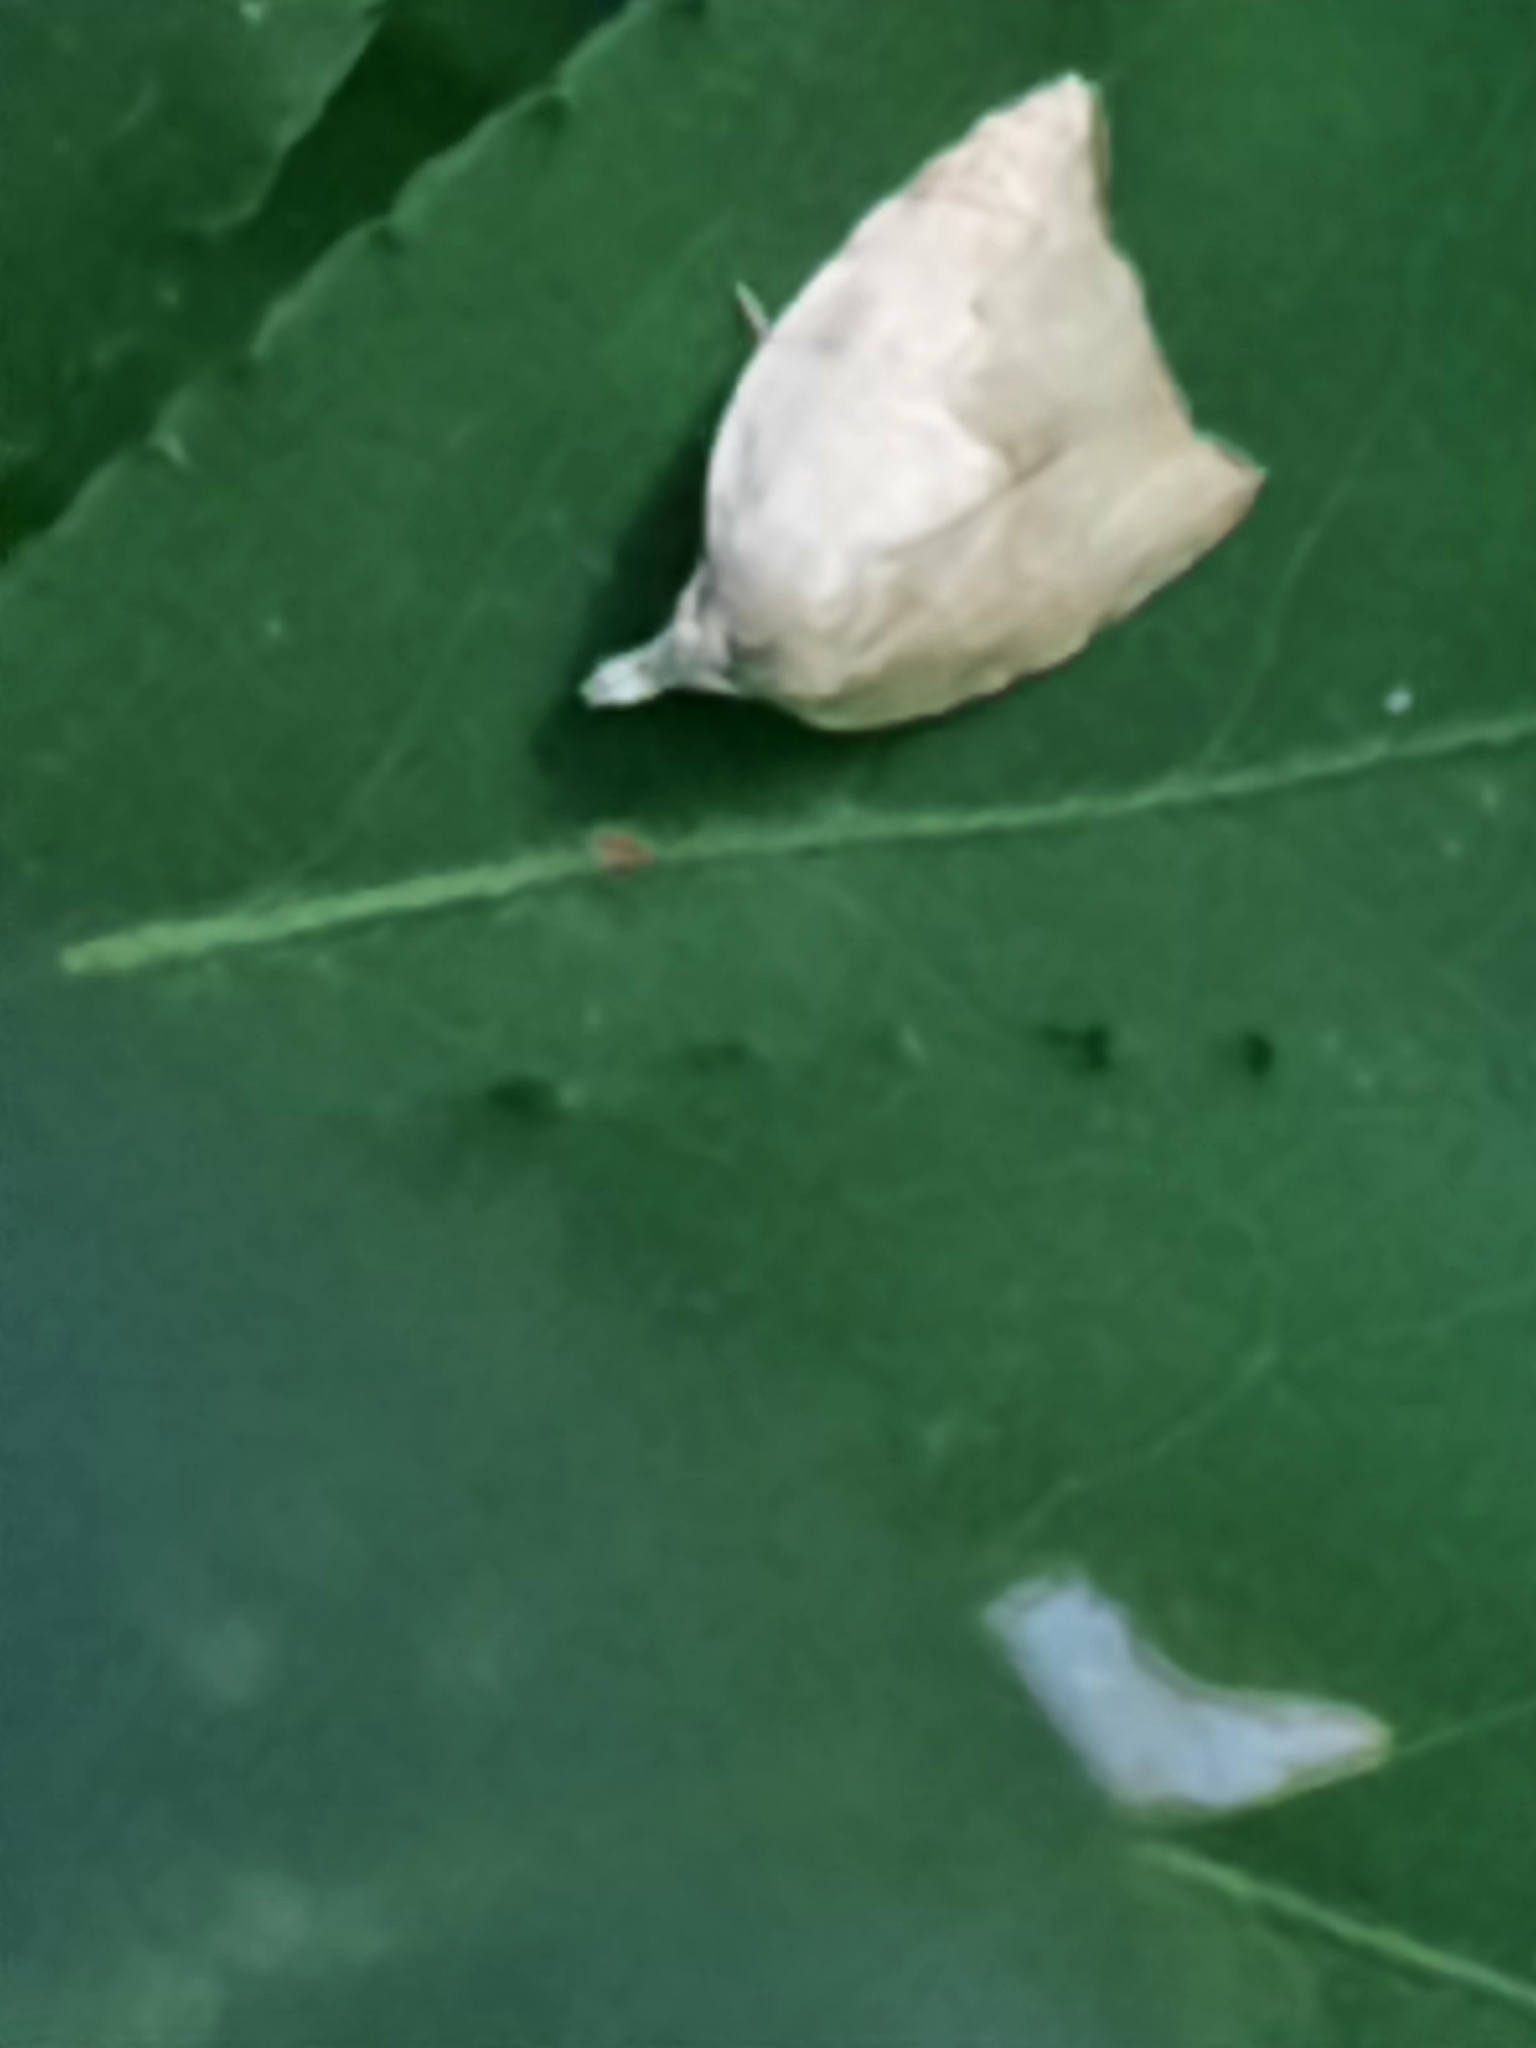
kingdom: Animalia
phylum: Arthropoda
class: Insecta
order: Lepidoptera
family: Tortricidae
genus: Coelostathma
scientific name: Coelostathma discopunctana
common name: Batman moth
